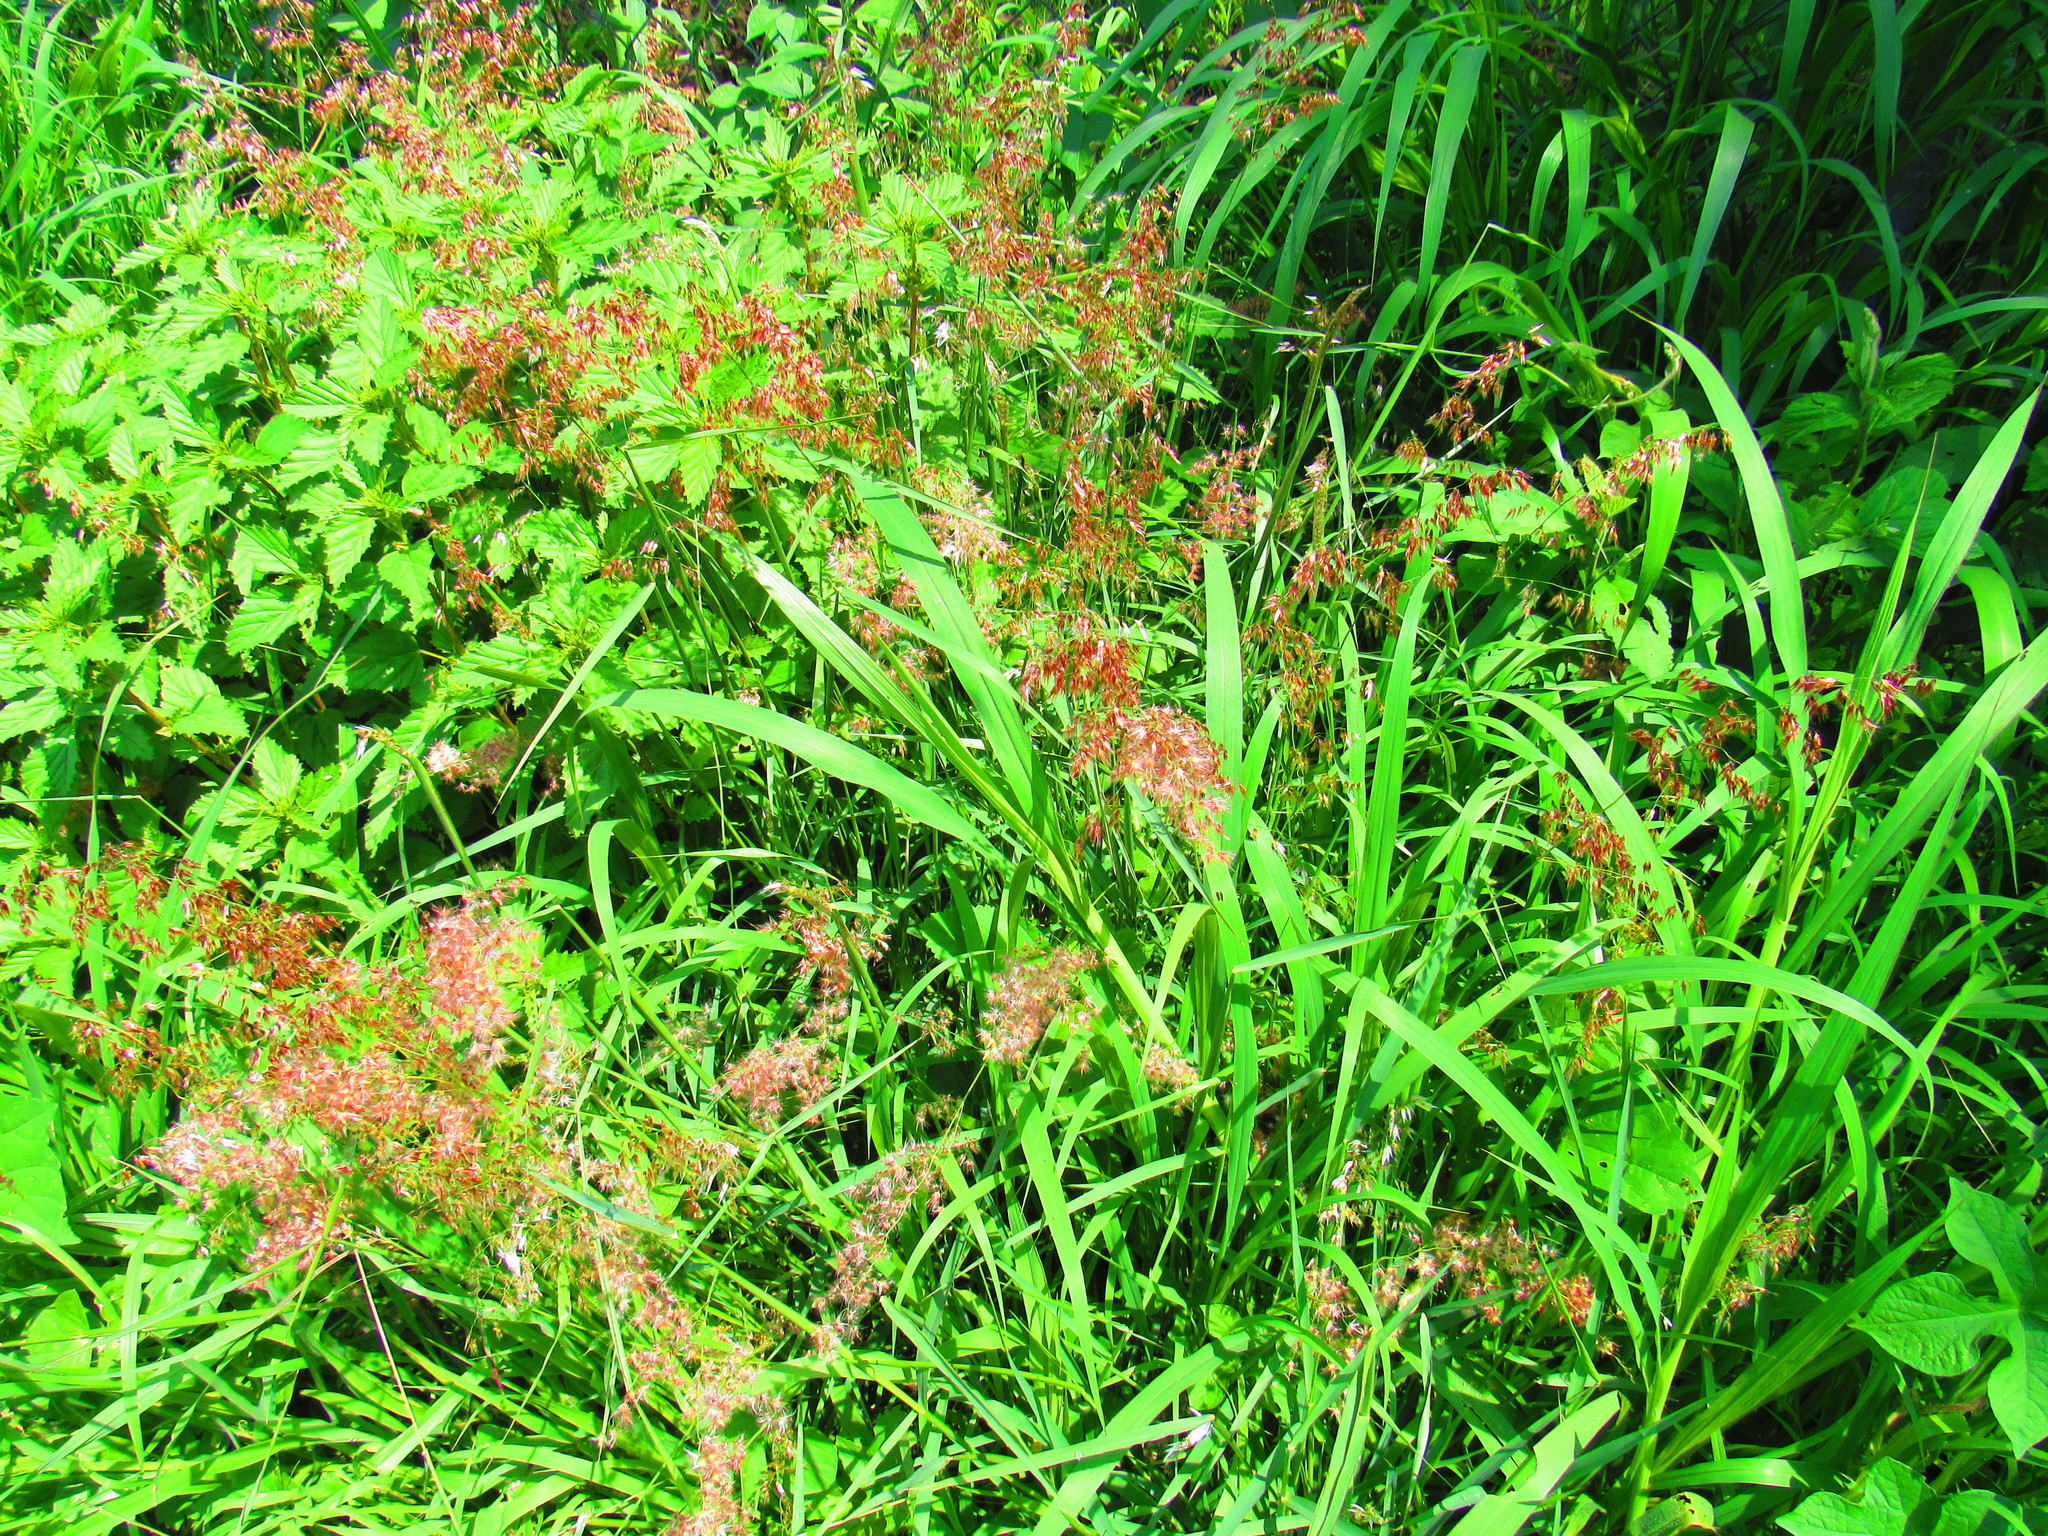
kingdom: Plantae
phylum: Tracheophyta
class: Liliopsida
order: Poales
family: Poaceae
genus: Melinis
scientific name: Melinis repens
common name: Rose natal grass
